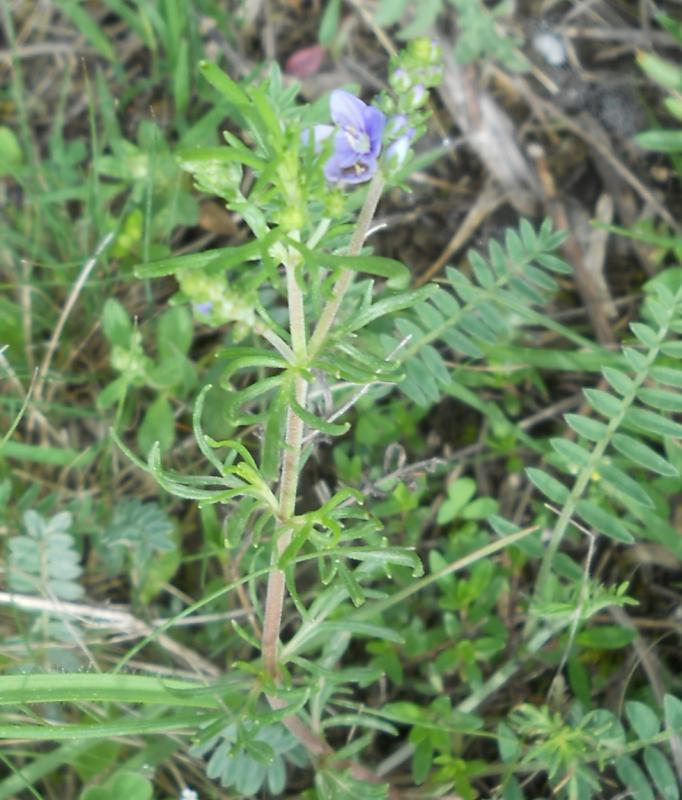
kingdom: Plantae
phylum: Tracheophyta
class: Magnoliopsida
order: Lamiales
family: Plantaginaceae
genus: Veronica
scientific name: Veronica multifida
